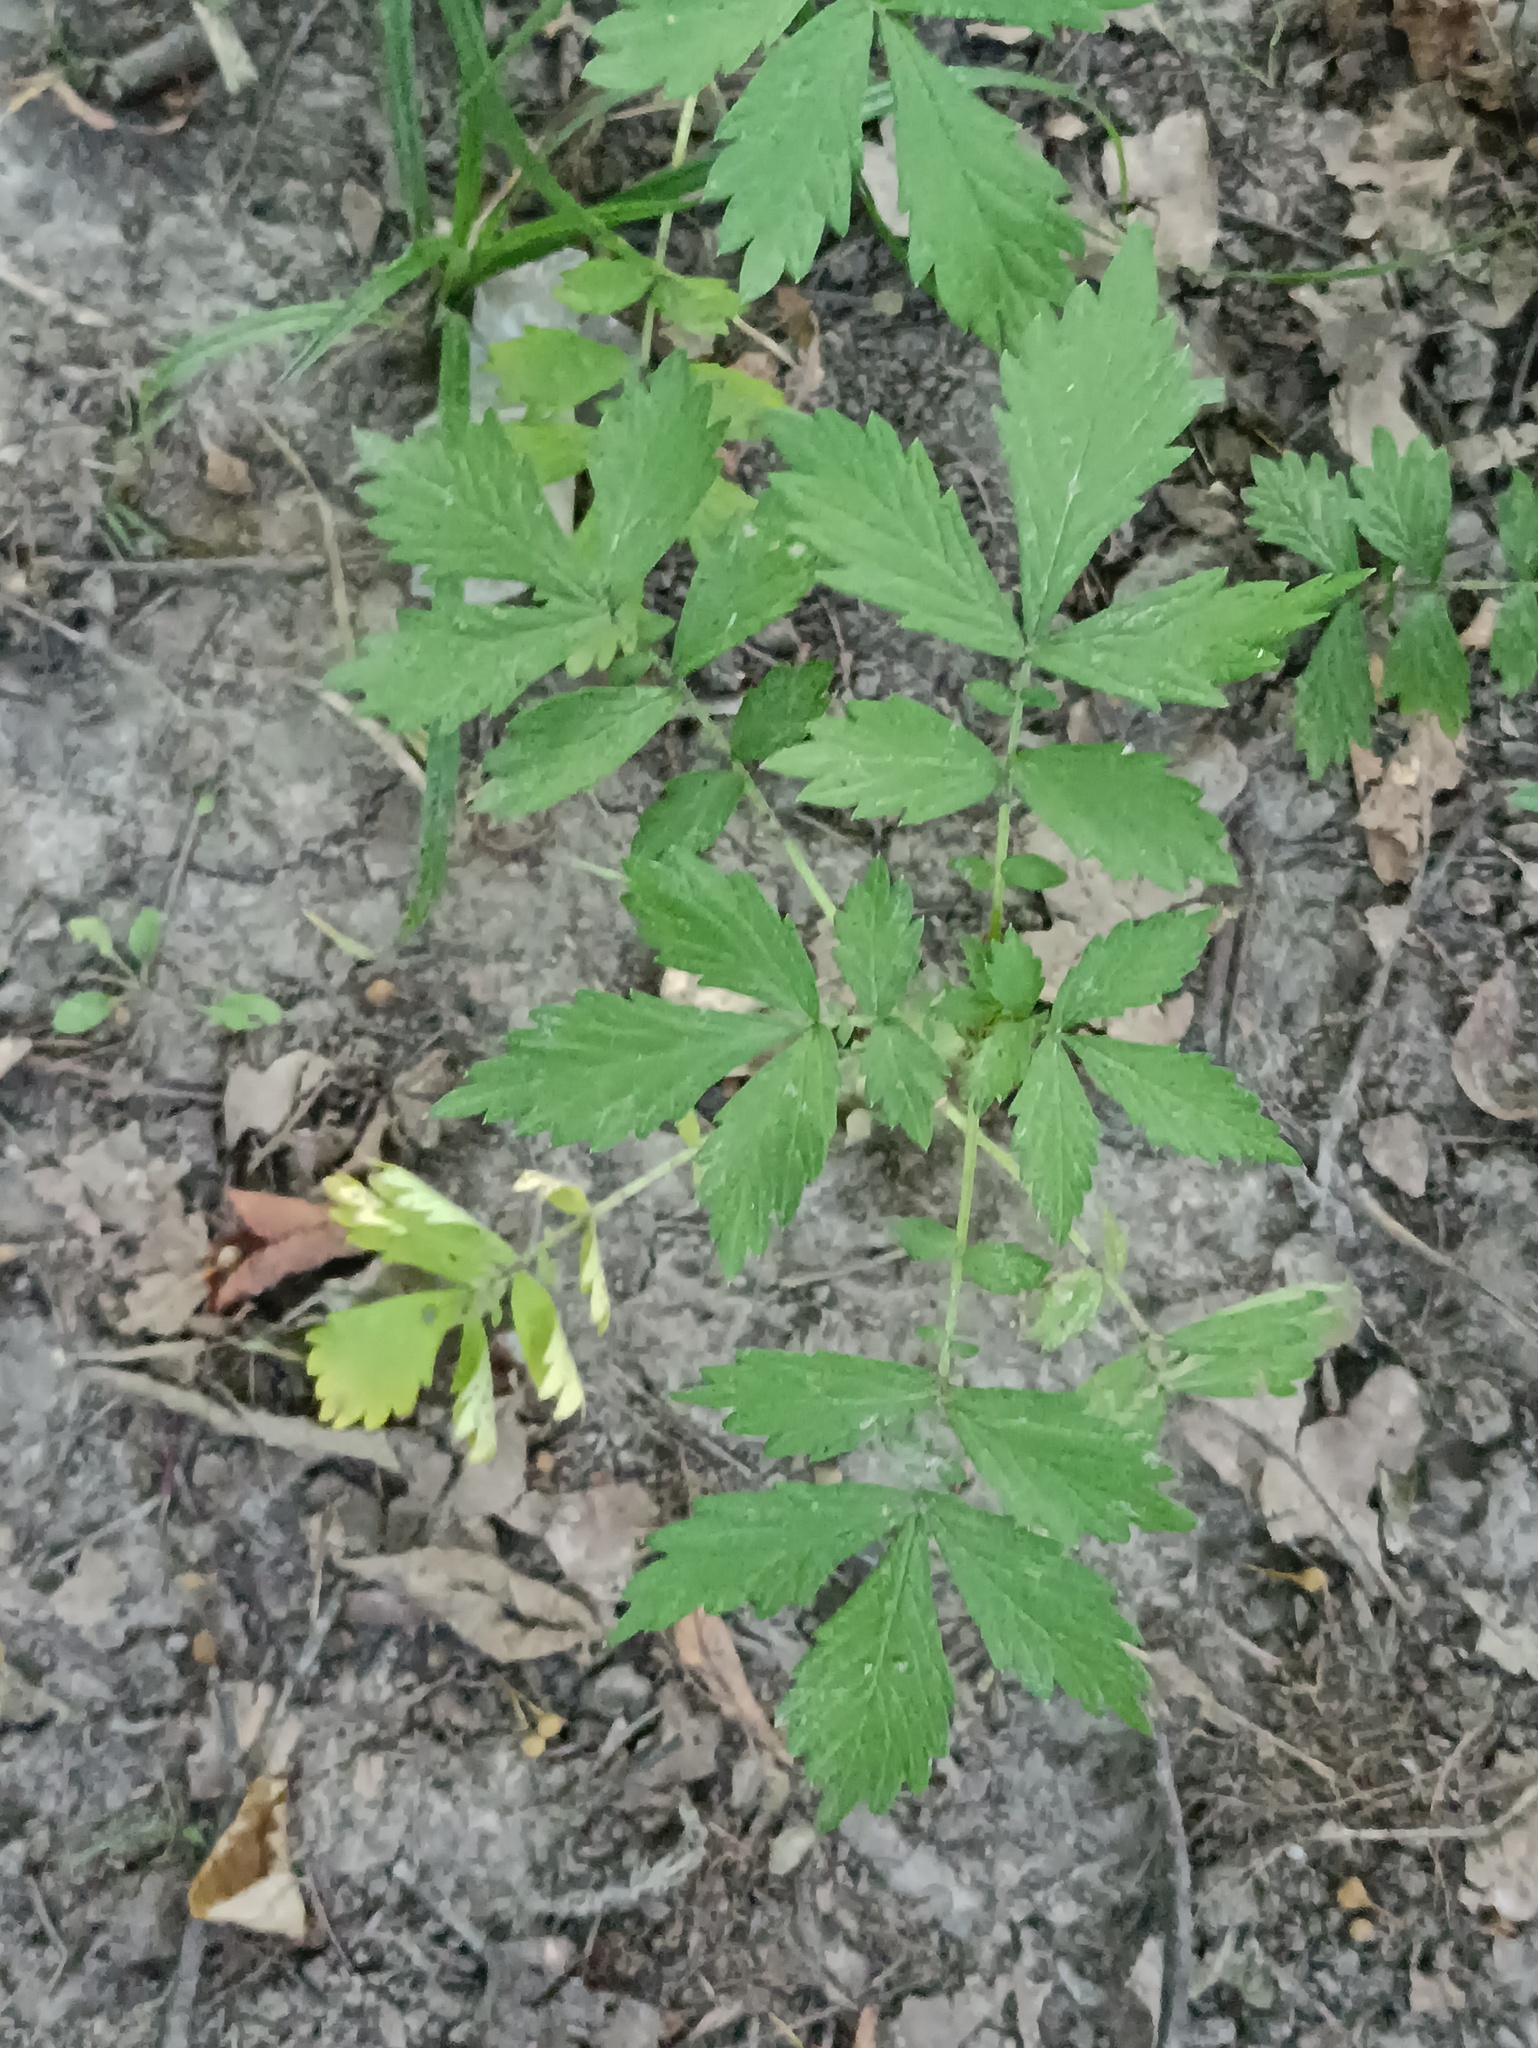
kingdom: Plantae
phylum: Tracheophyta
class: Magnoliopsida
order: Rosales
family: Rosaceae
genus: Agrimonia
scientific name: Agrimonia pilosa
